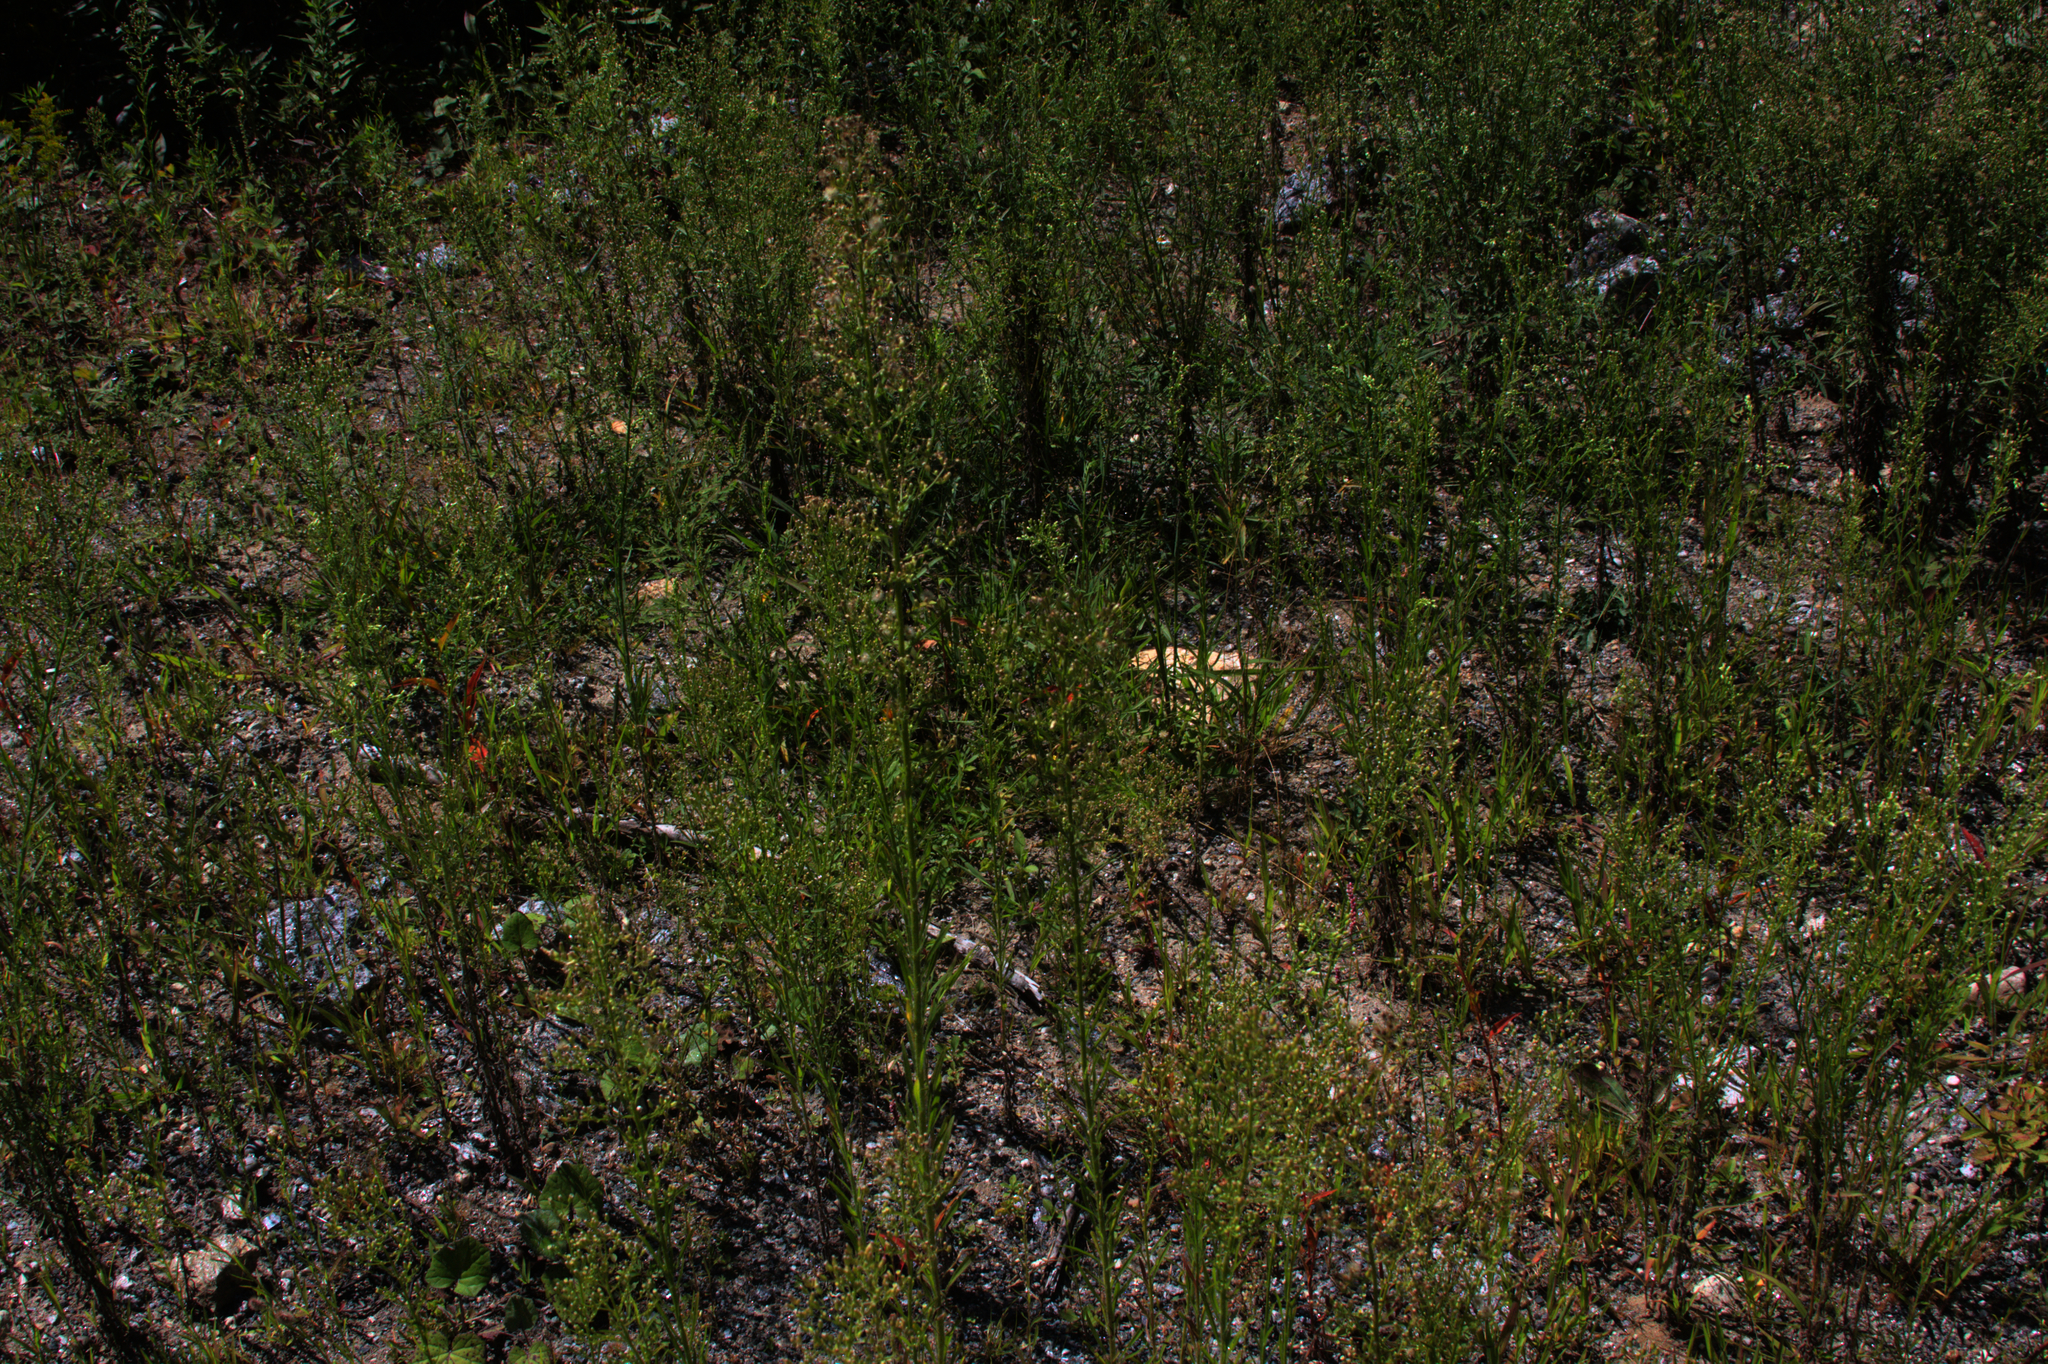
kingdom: Plantae
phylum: Tracheophyta
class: Magnoliopsida
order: Asterales
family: Asteraceae
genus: Erigeron
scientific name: Erigeron canadensis
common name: Canadian fleabane
